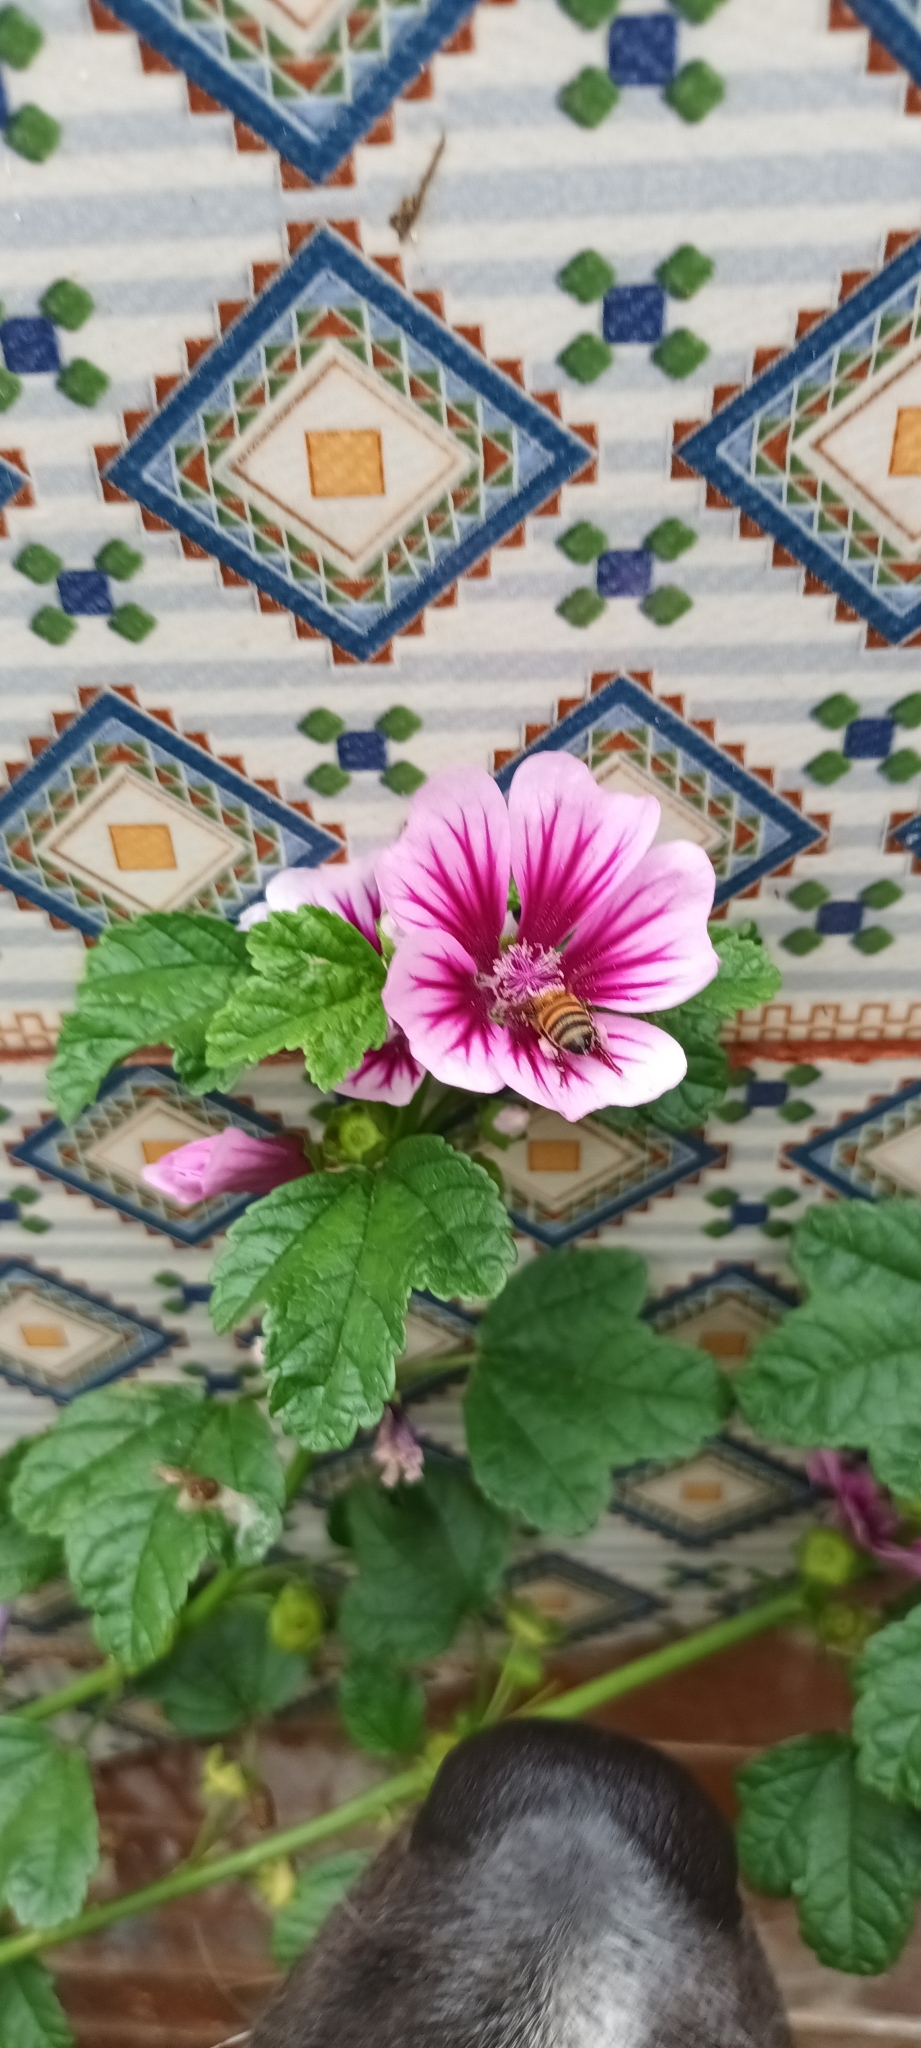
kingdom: Animalia
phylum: Arthropoda
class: Insecta
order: Hymenoptera
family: Apidae
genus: Apis
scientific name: Apis mellifera
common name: Honey bee
